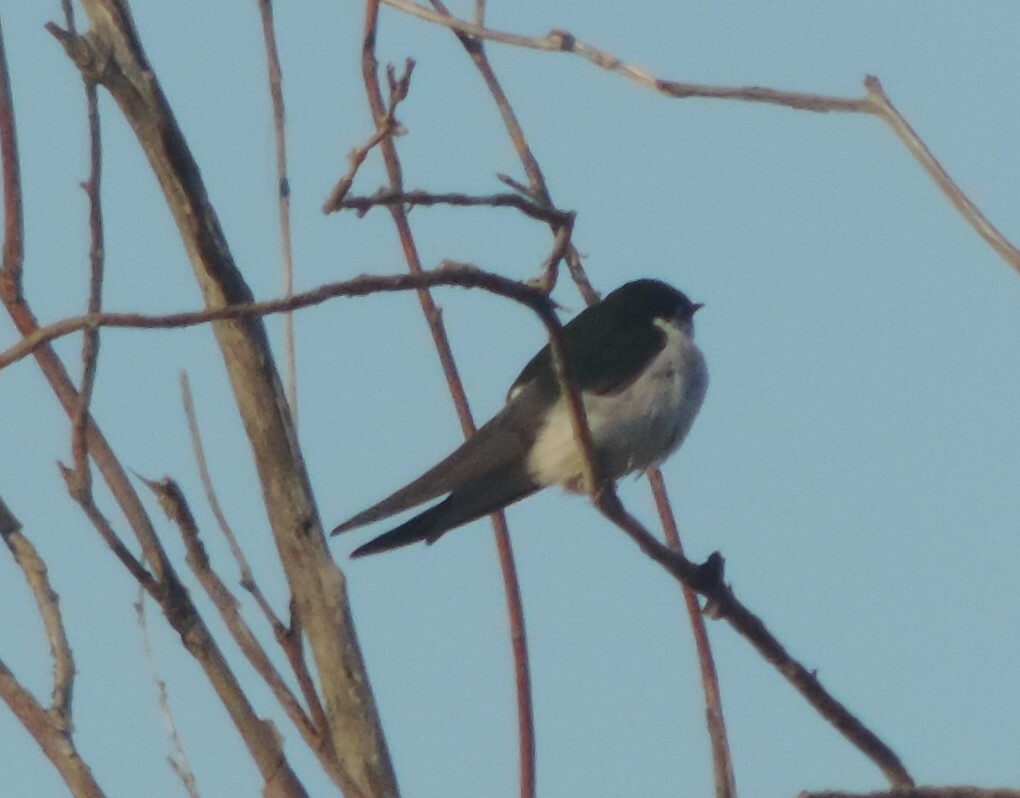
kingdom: Animalia
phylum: Chordata
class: Aves
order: Passeriformes
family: Hirundinidae
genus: Tachycineta
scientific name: Tachycineta thalassina
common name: Violet-green swallow
